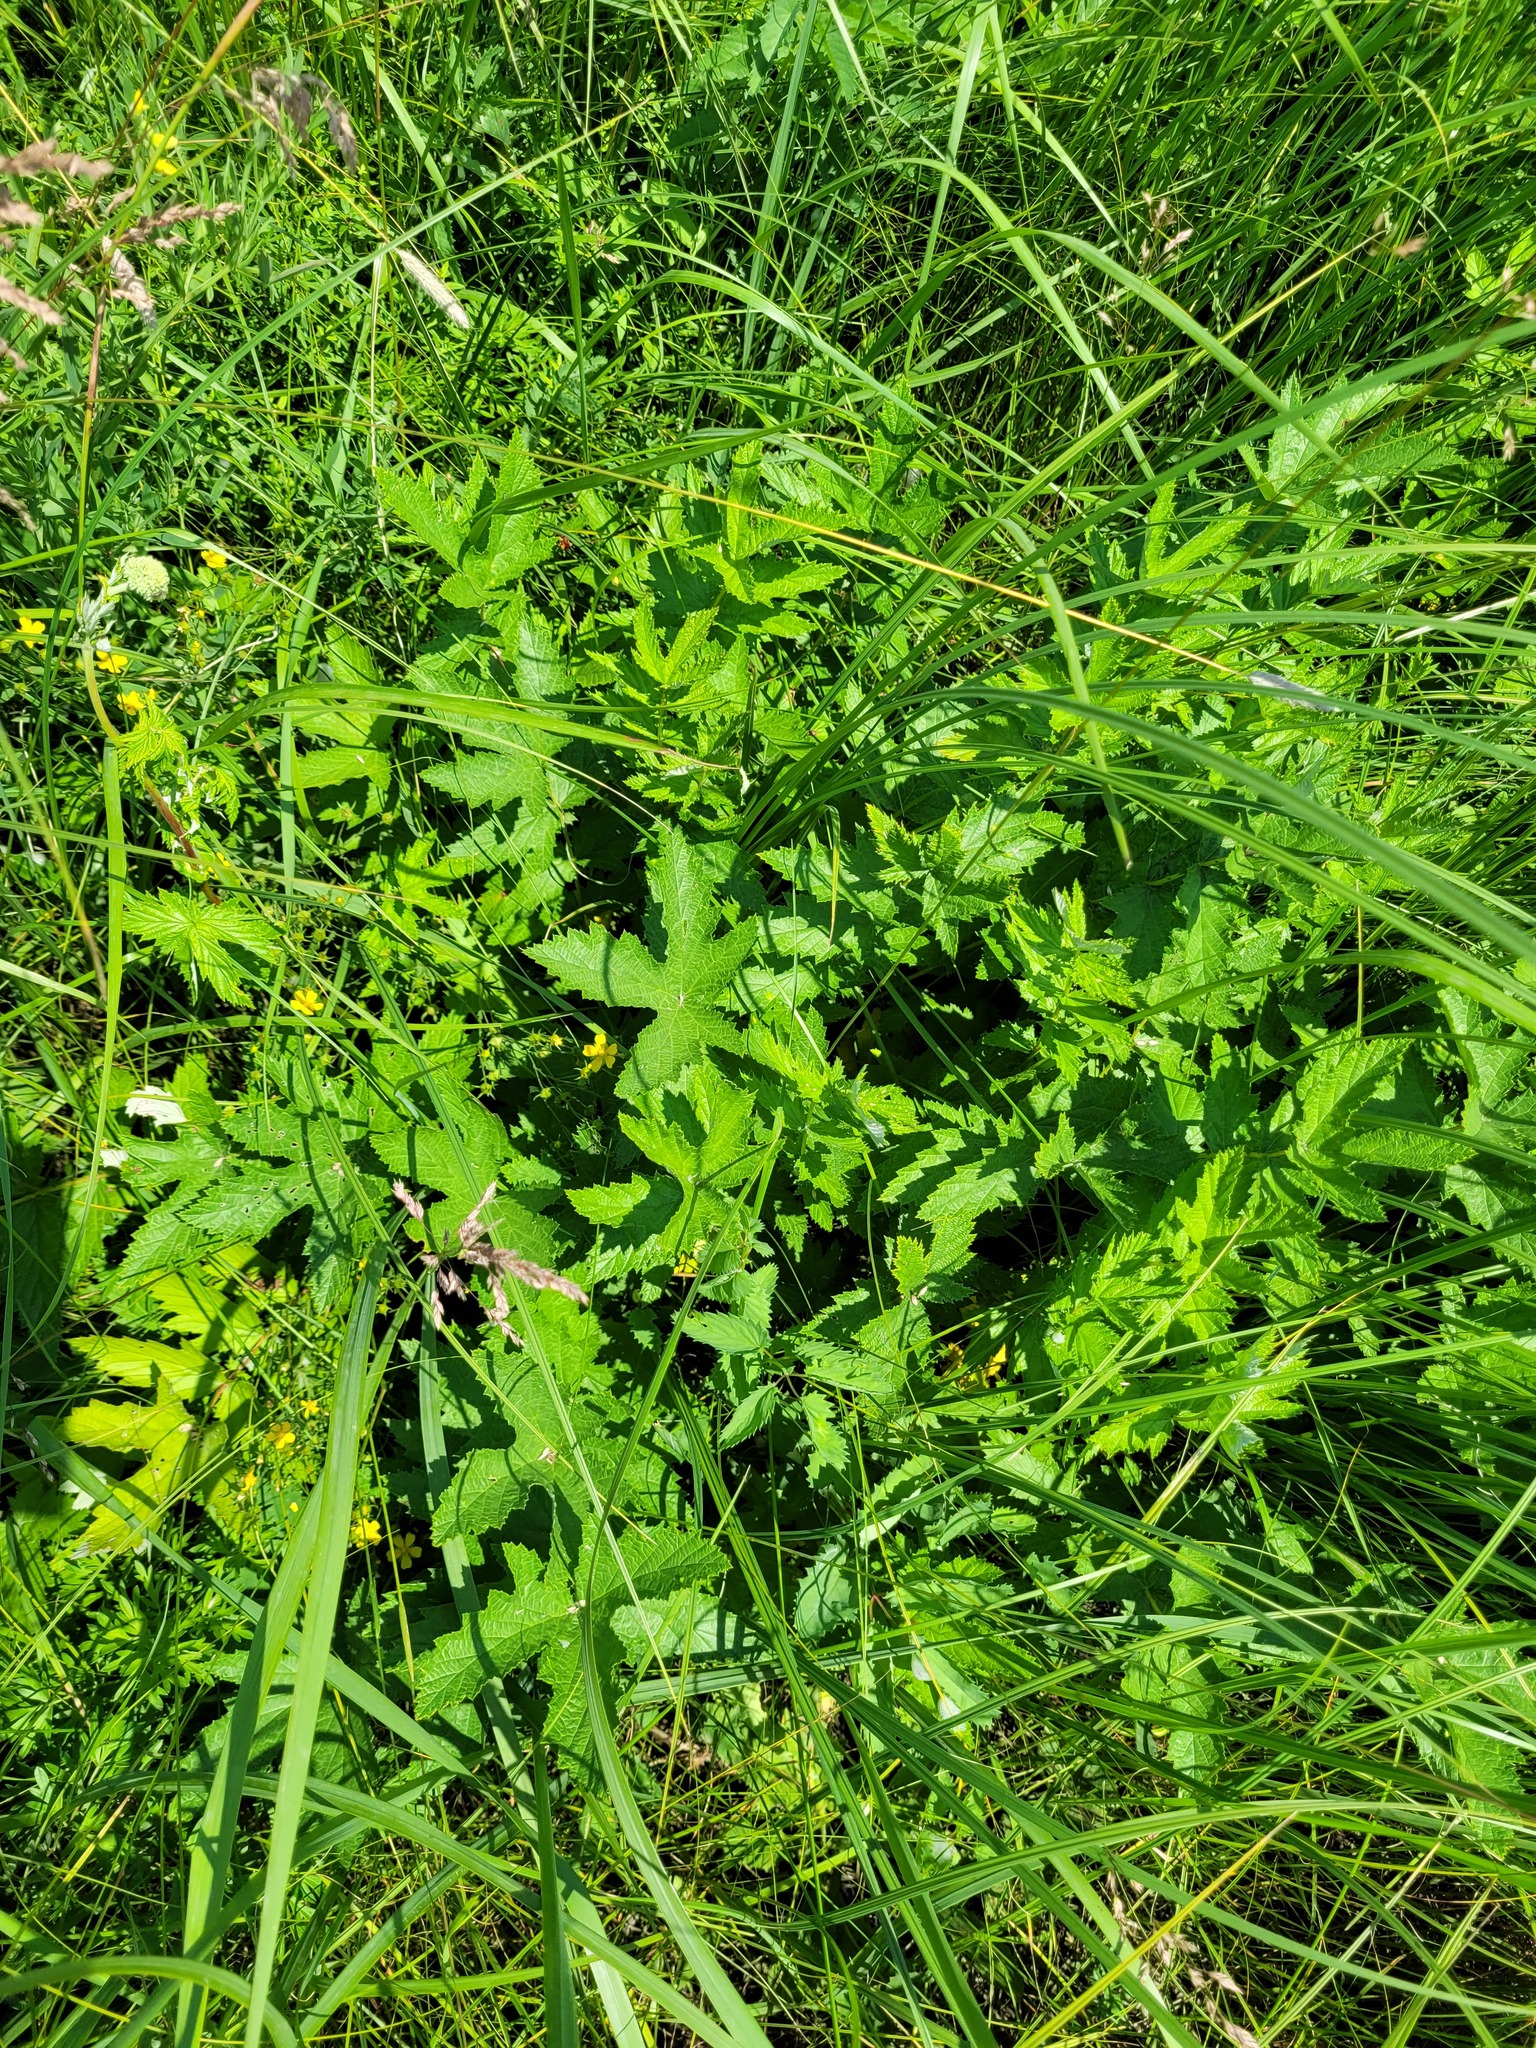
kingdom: Plantae
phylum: Tracheophyta
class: Magnoliopsida
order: Rosales
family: Rosaceae
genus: Filipendula
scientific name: Filipendula ulmaria
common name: Meadowsweet
